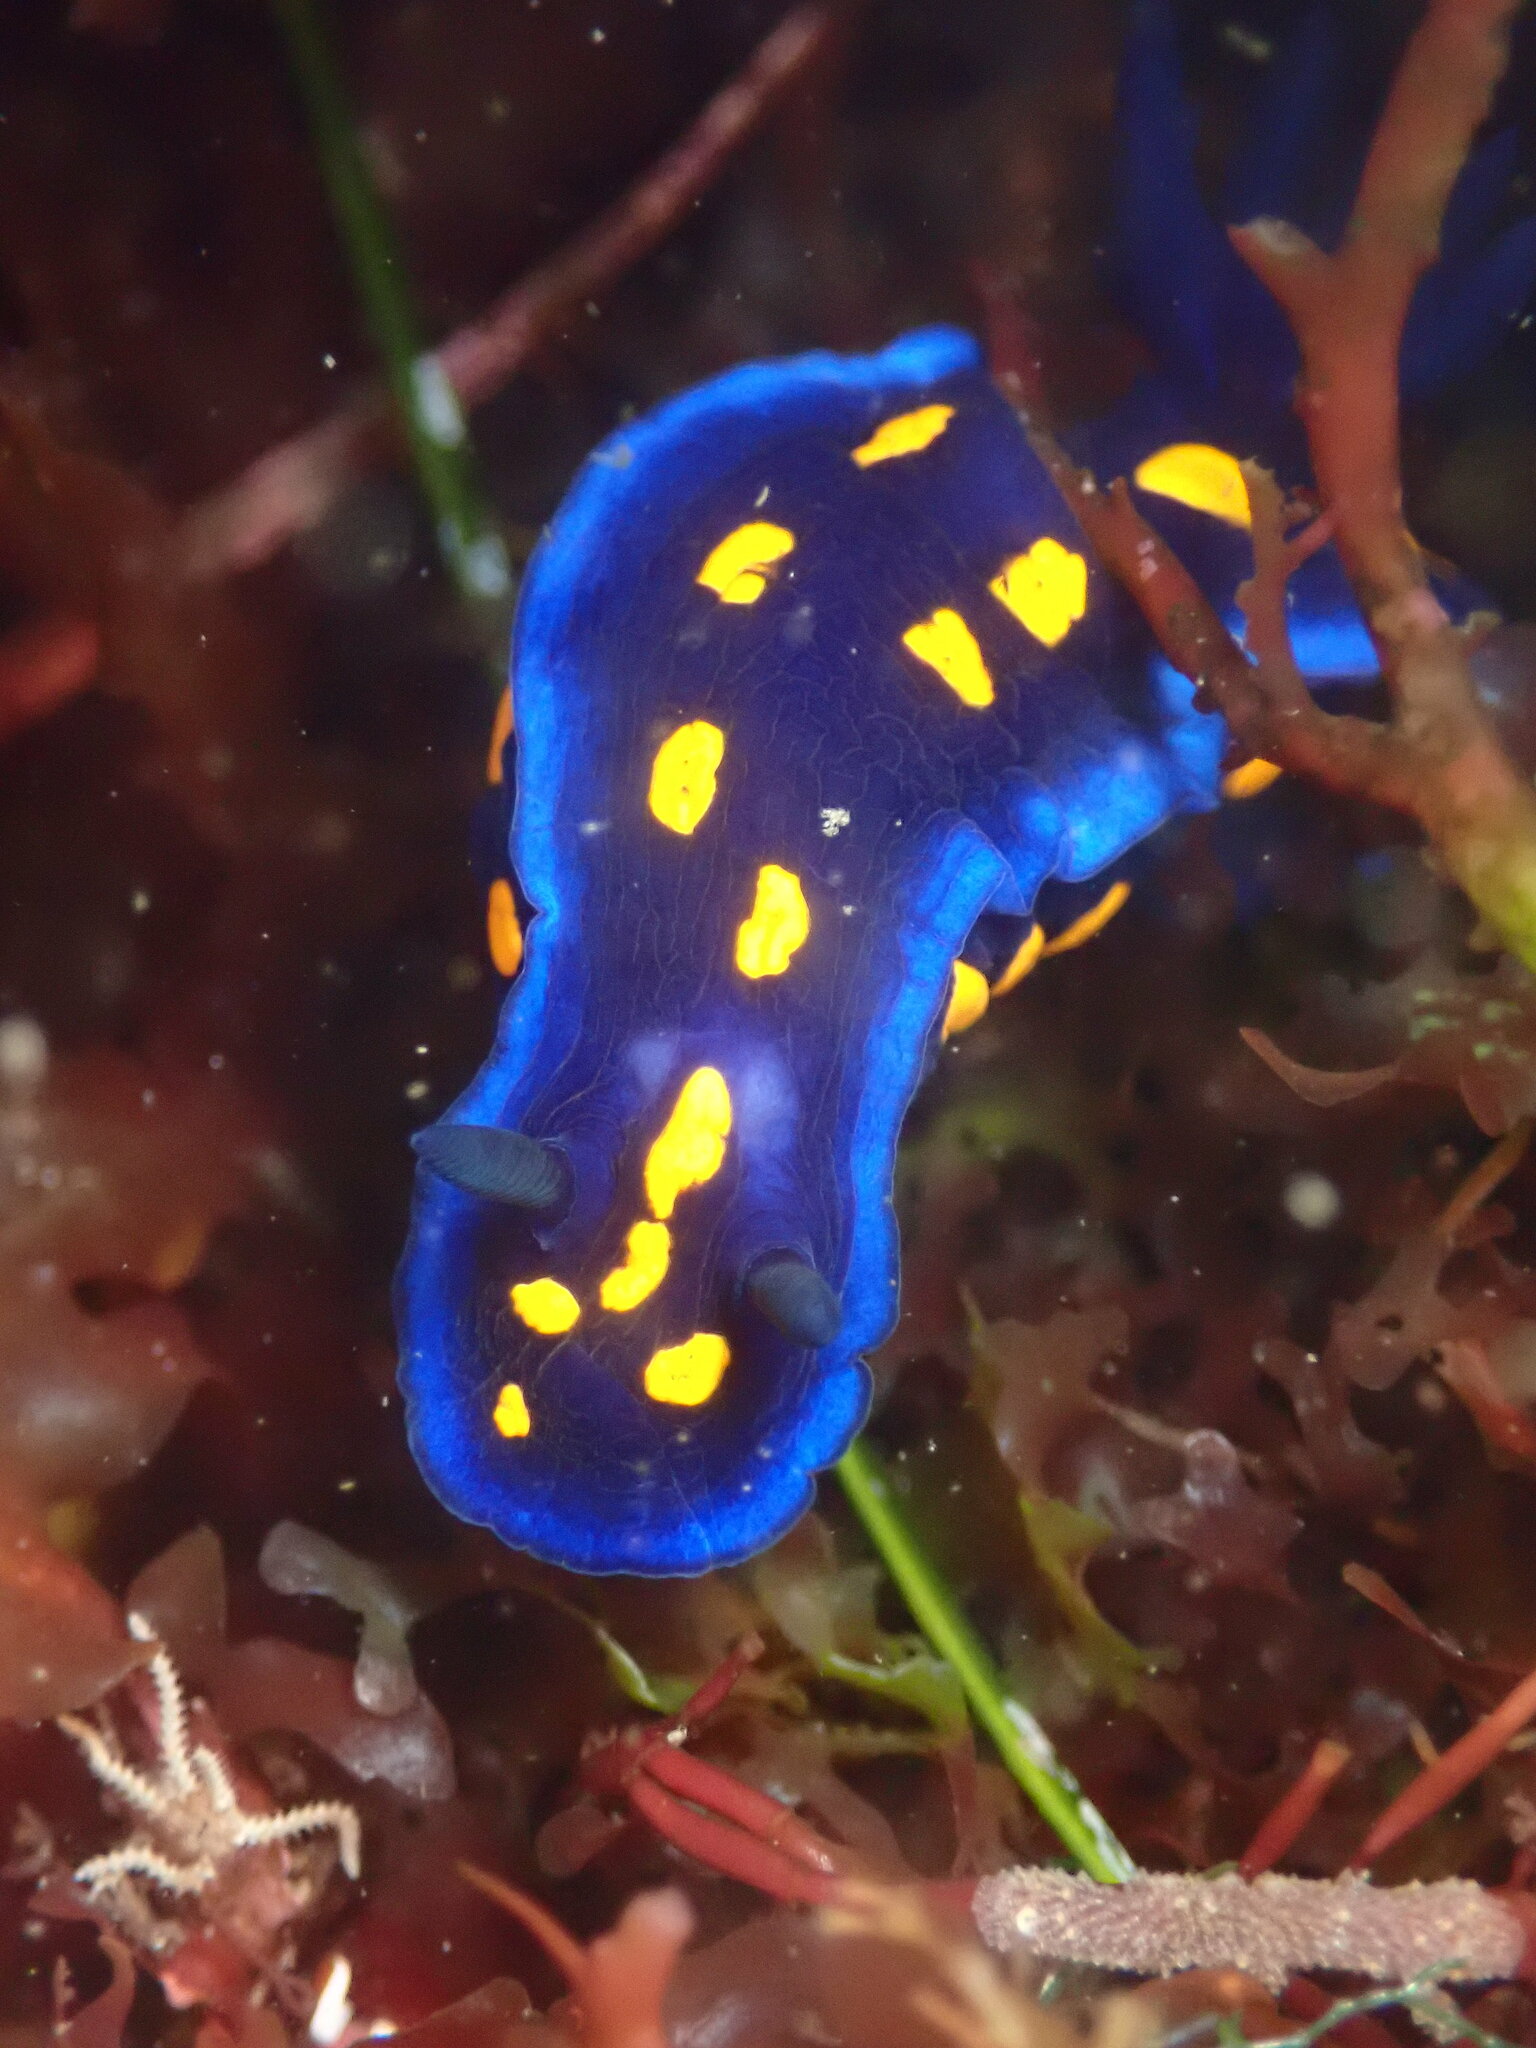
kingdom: Animalia
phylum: Mollusca
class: Gastropoda
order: Nudibranchia
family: Chromodorididae
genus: Felimare
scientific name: Felimare californiensis
